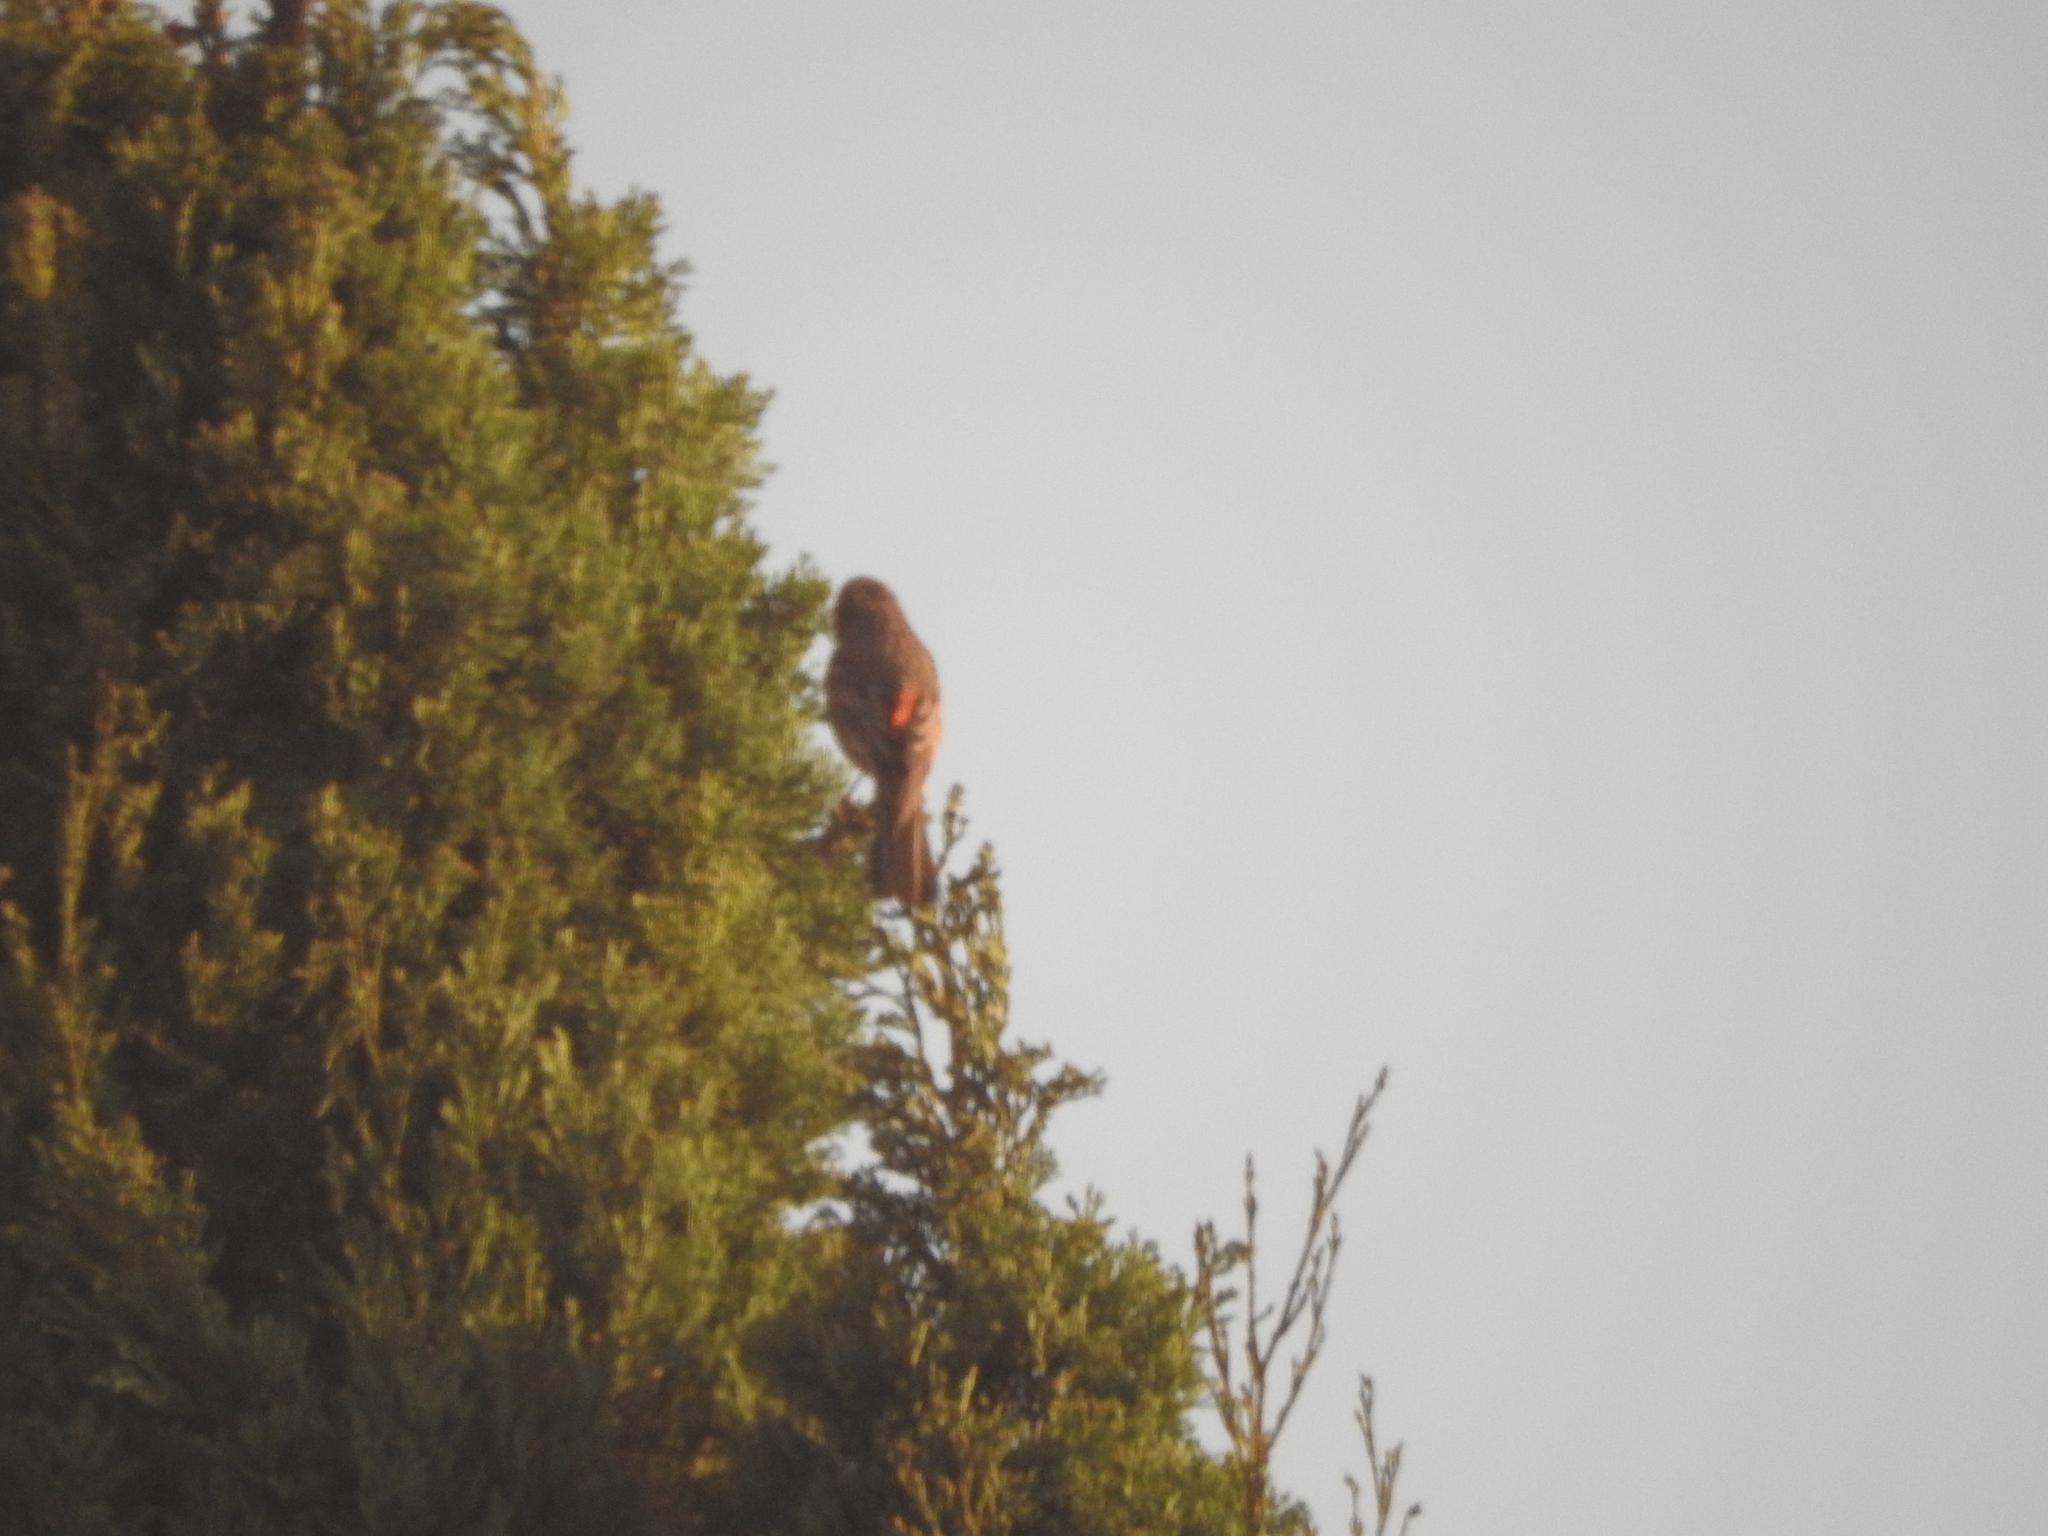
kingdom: Animalia
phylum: Chordata
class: Aves
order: Passeriformes
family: Fringillidae
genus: Haemorhous
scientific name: Haemorhous mexicanus
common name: House finch
